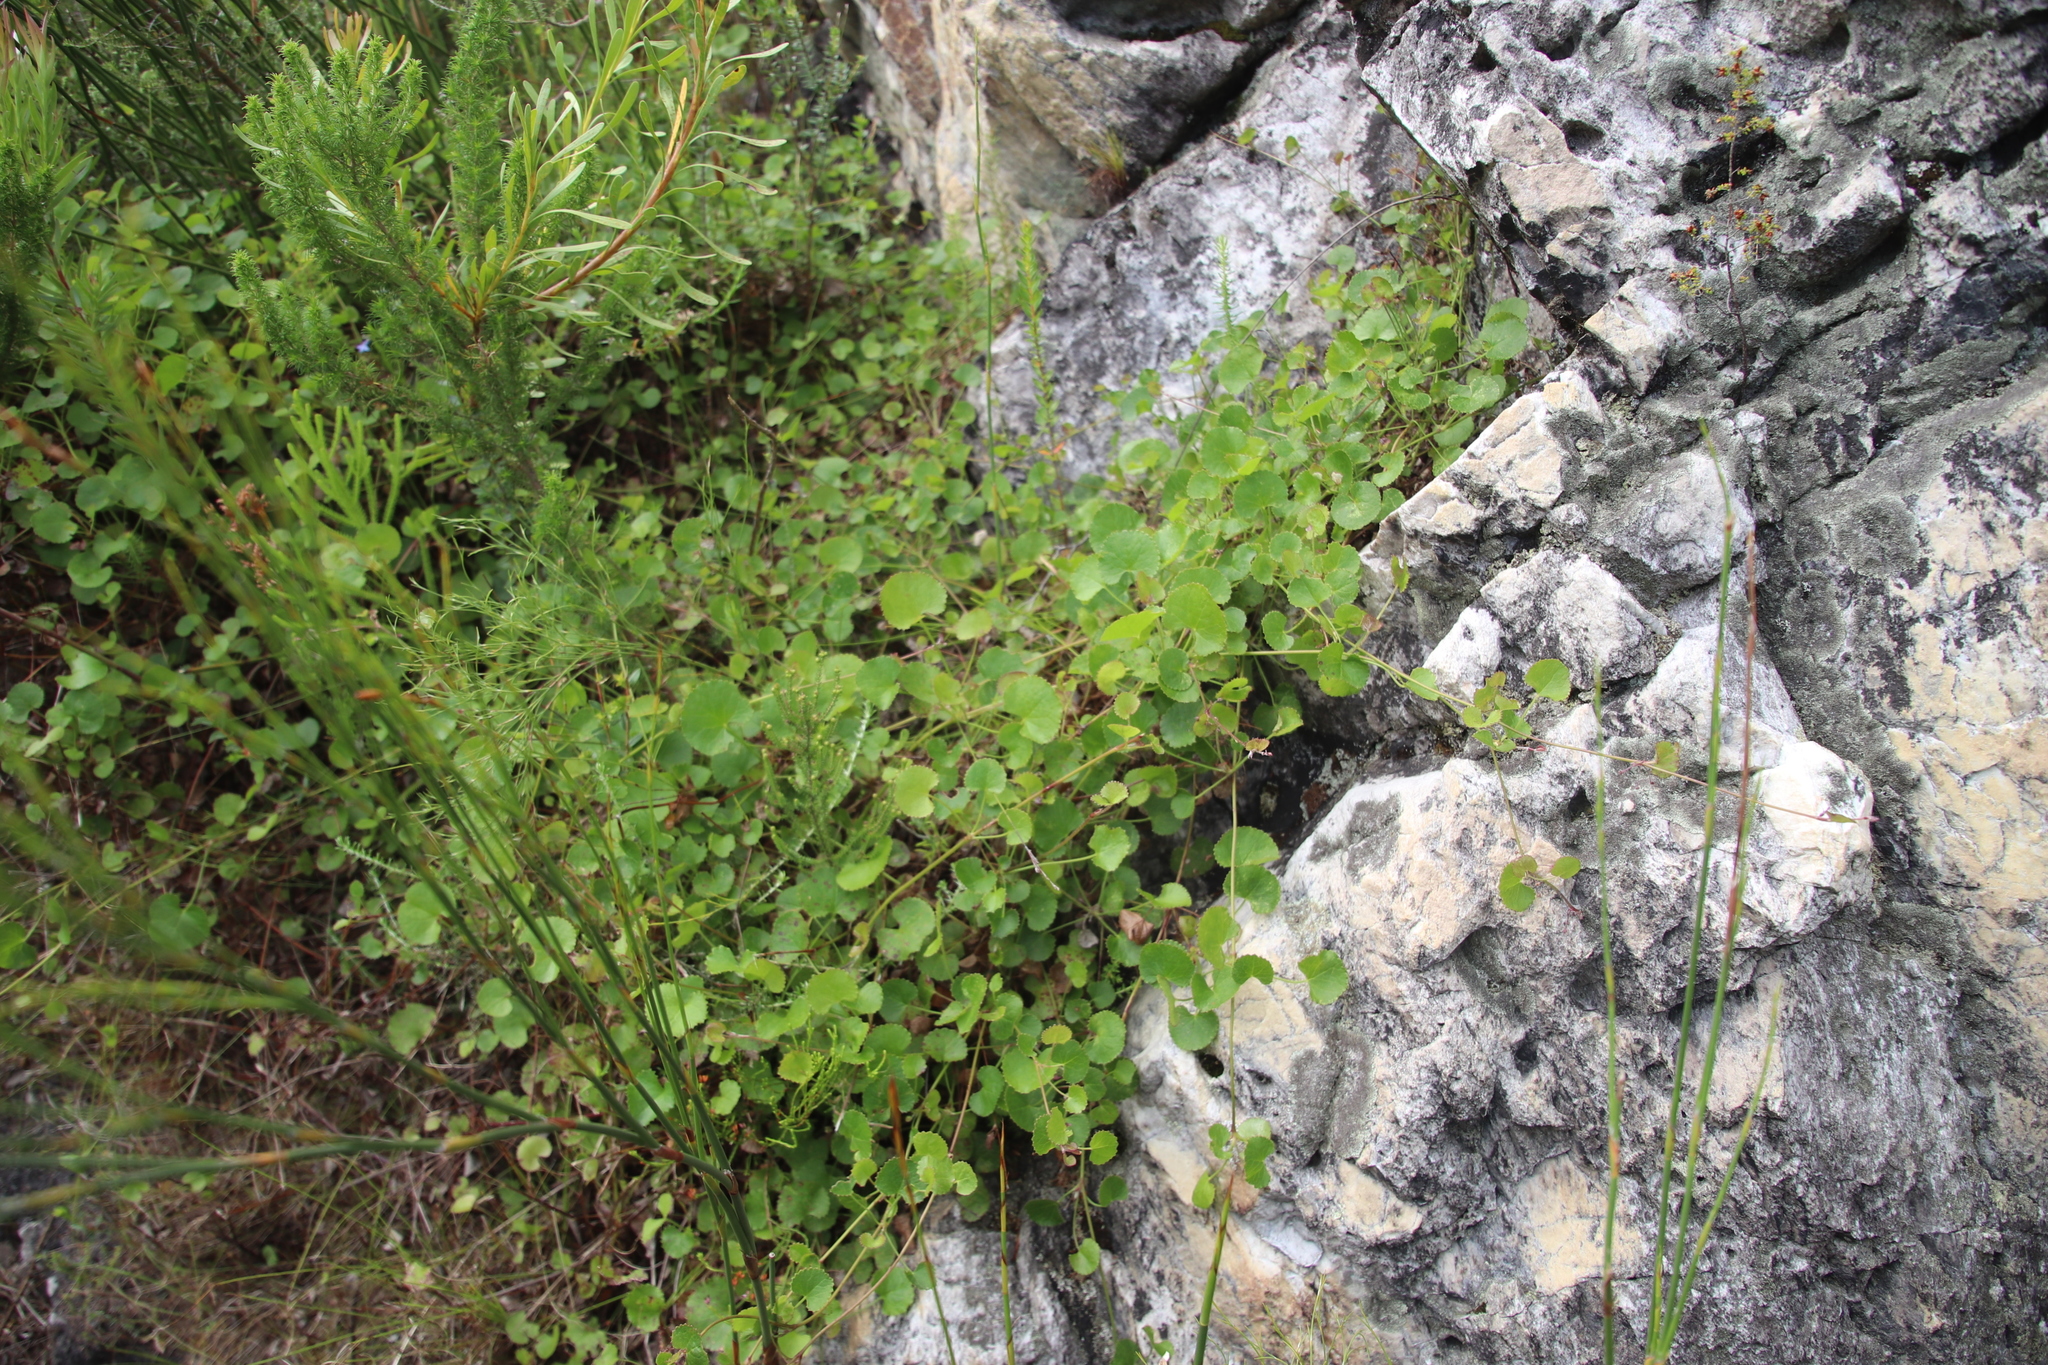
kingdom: Plantae
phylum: Tracheophyta
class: Magnoliopsida
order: Apiales
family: Apiaceae
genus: Centella
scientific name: Centella eriantha
